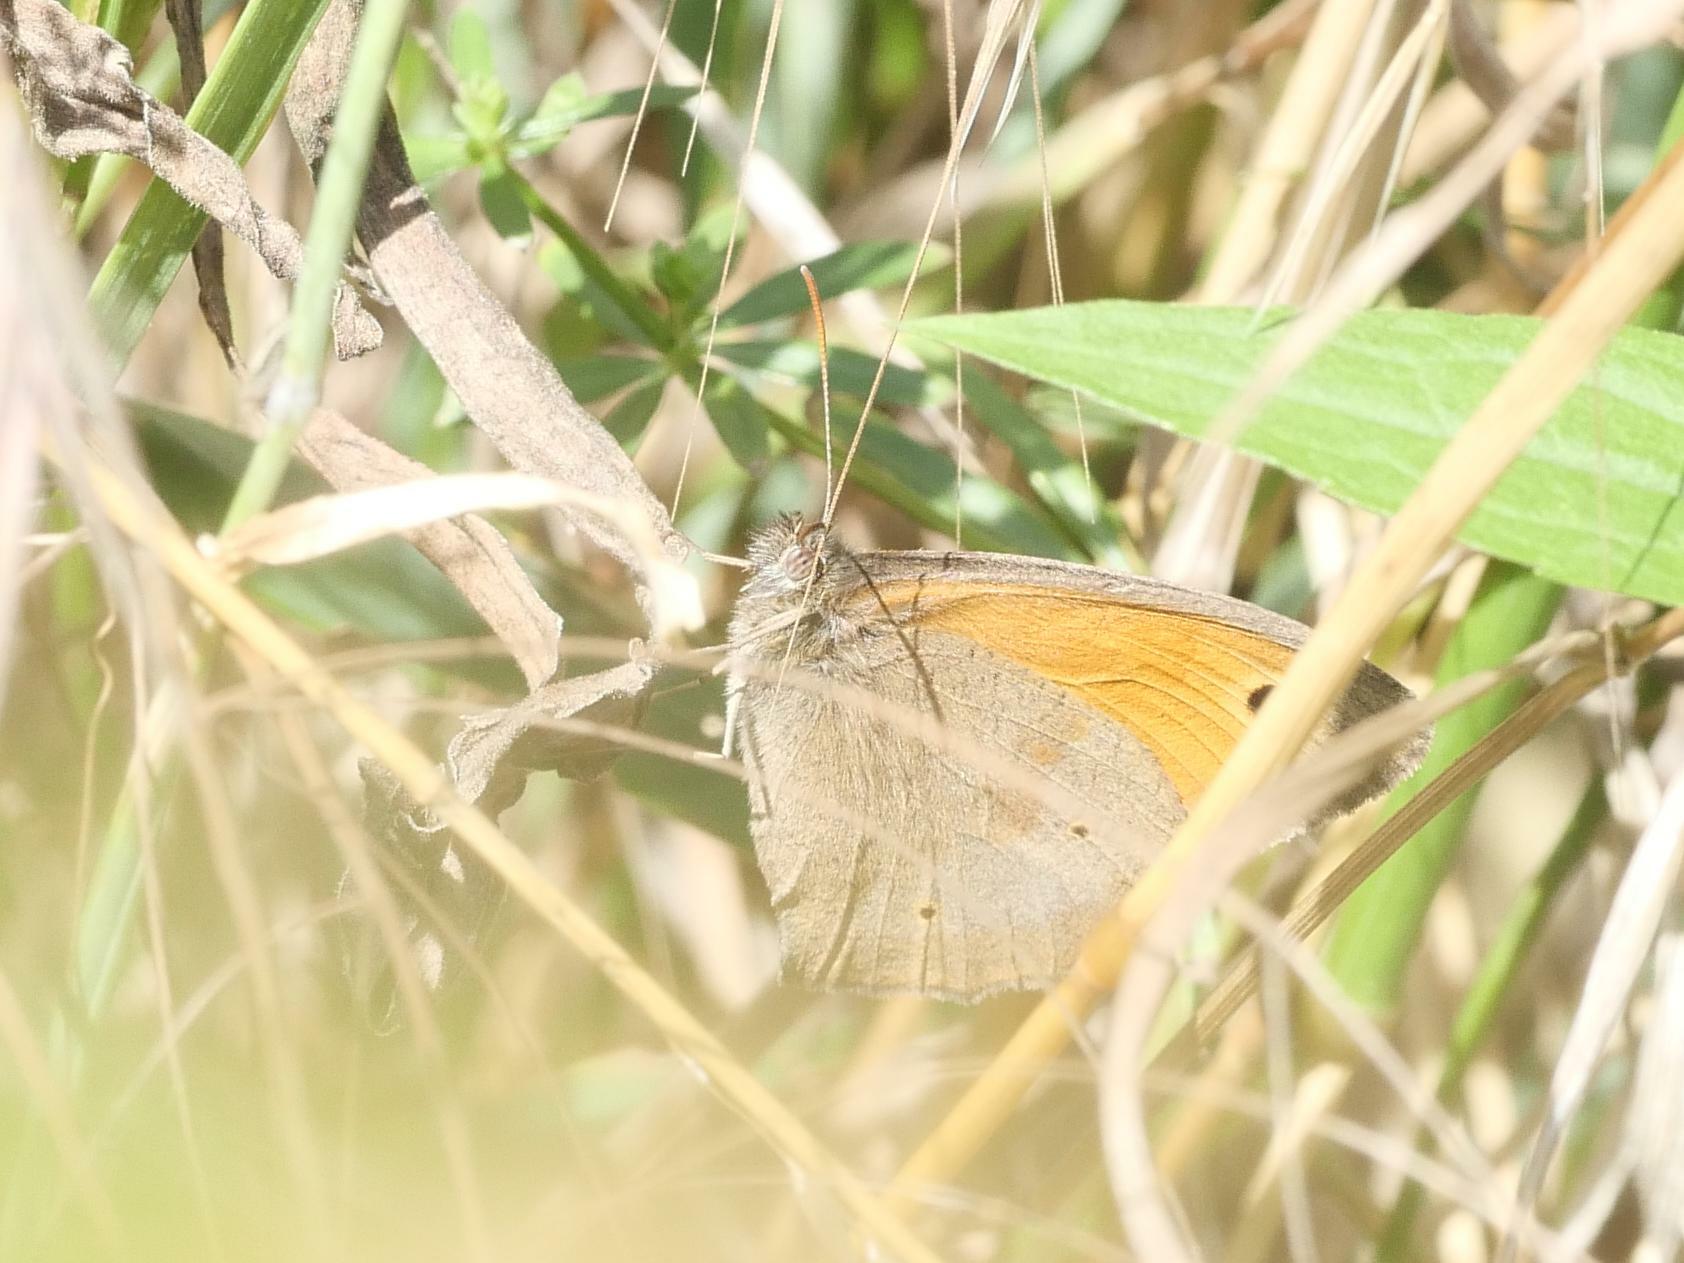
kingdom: Animalia
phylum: Arthropoda
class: Insecta
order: Lepidoptera
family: Nymphalidae
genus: Maniola
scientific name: Maniola jurtina
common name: Meadow brown
